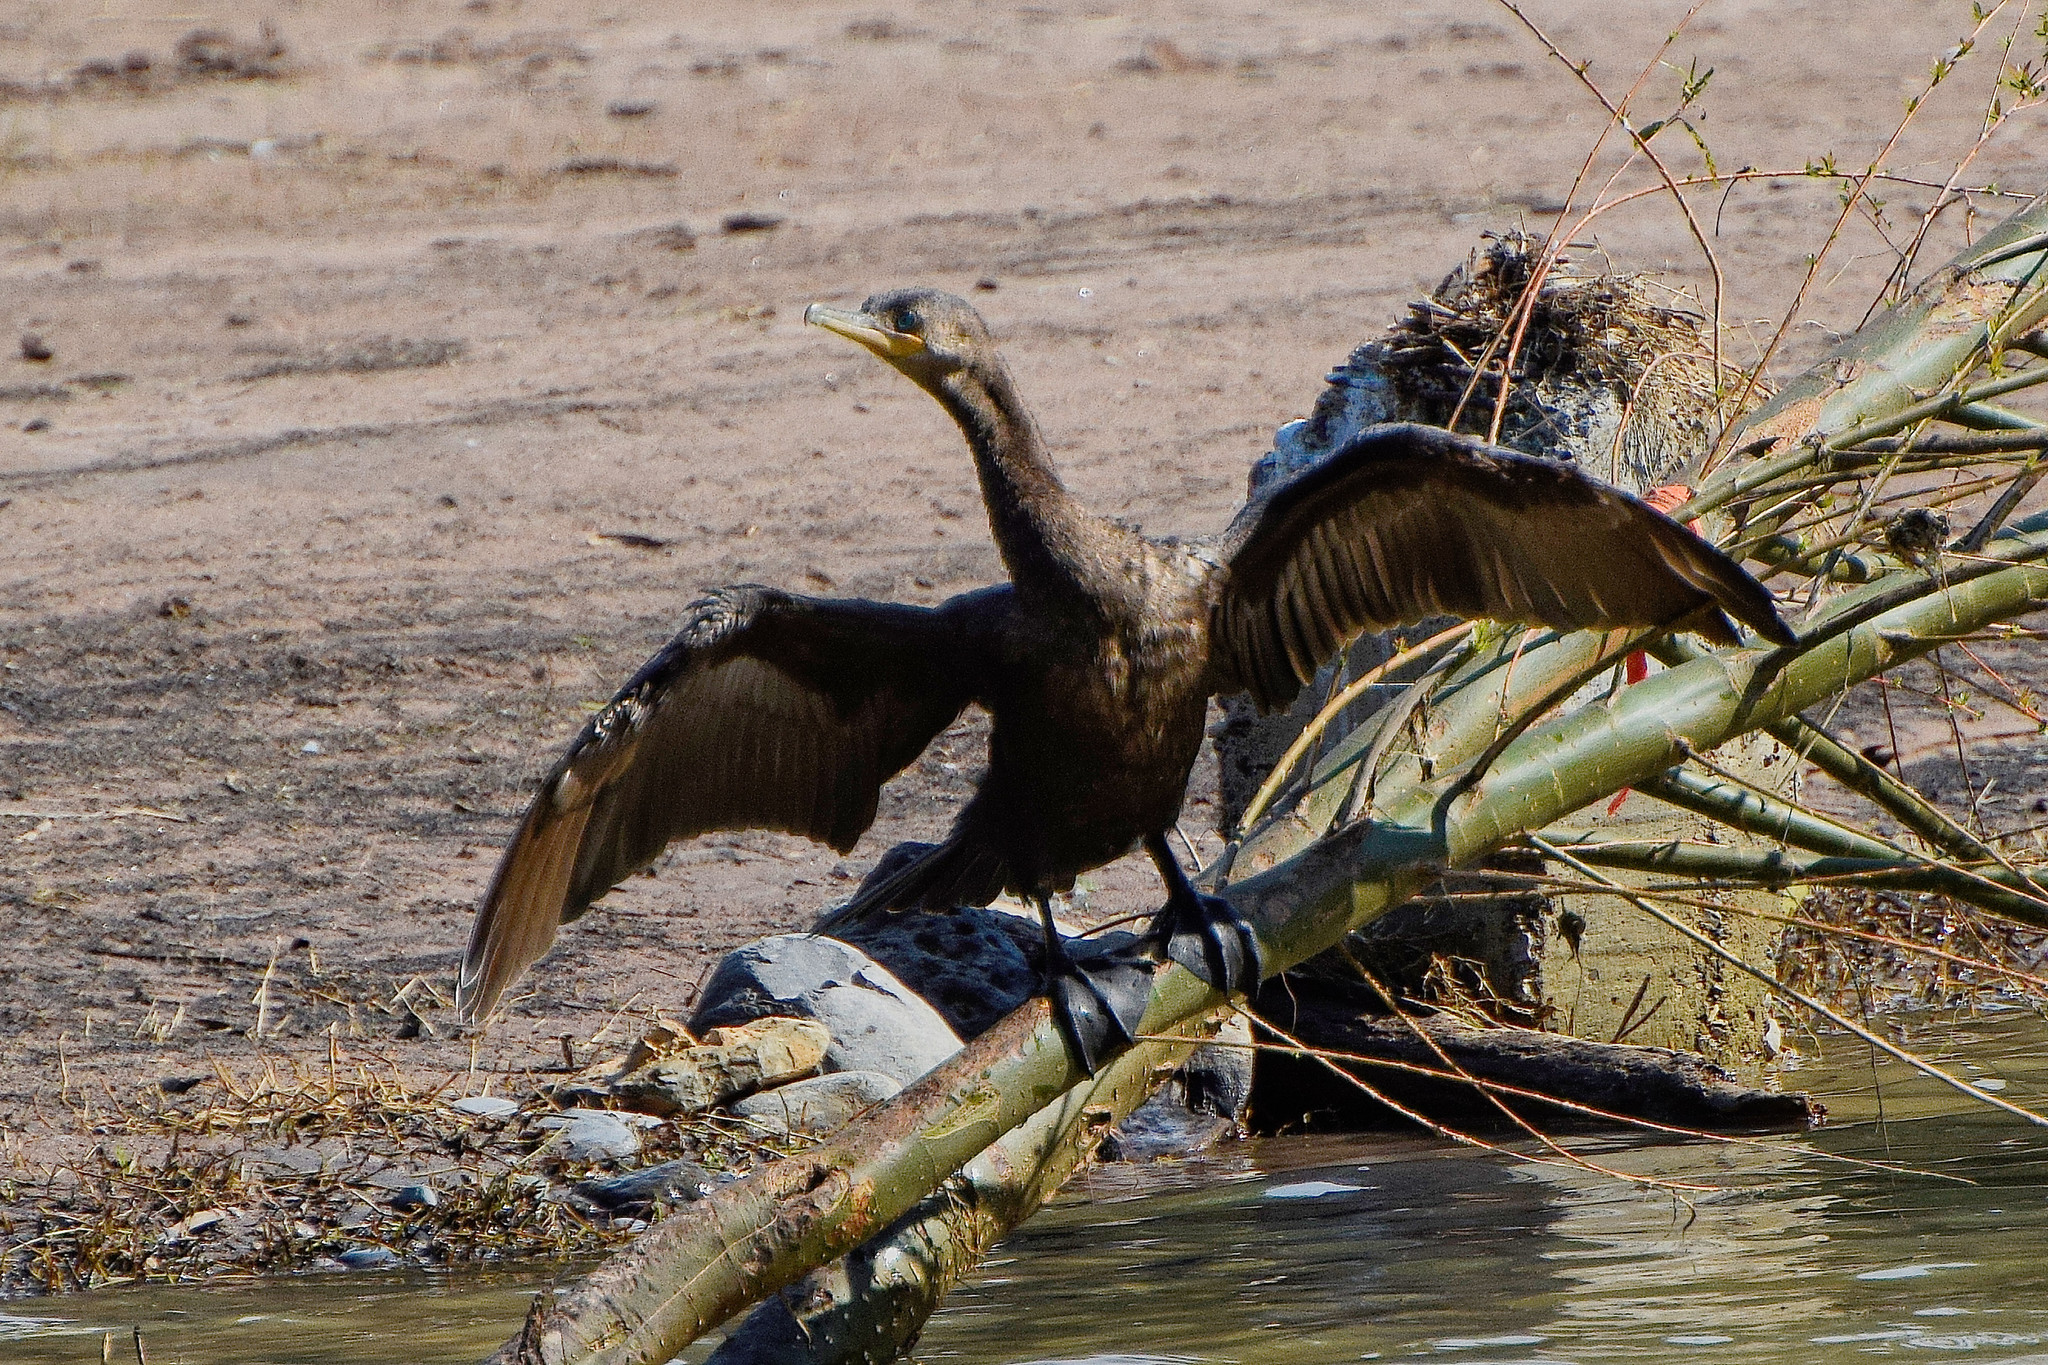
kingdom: Animalia
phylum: Chordata
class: Aves
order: Suliformes
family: Phalacrocoracidae
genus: Phalacrocorax
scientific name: Phalacrocorax brasilianus
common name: Neotropic cormorant
